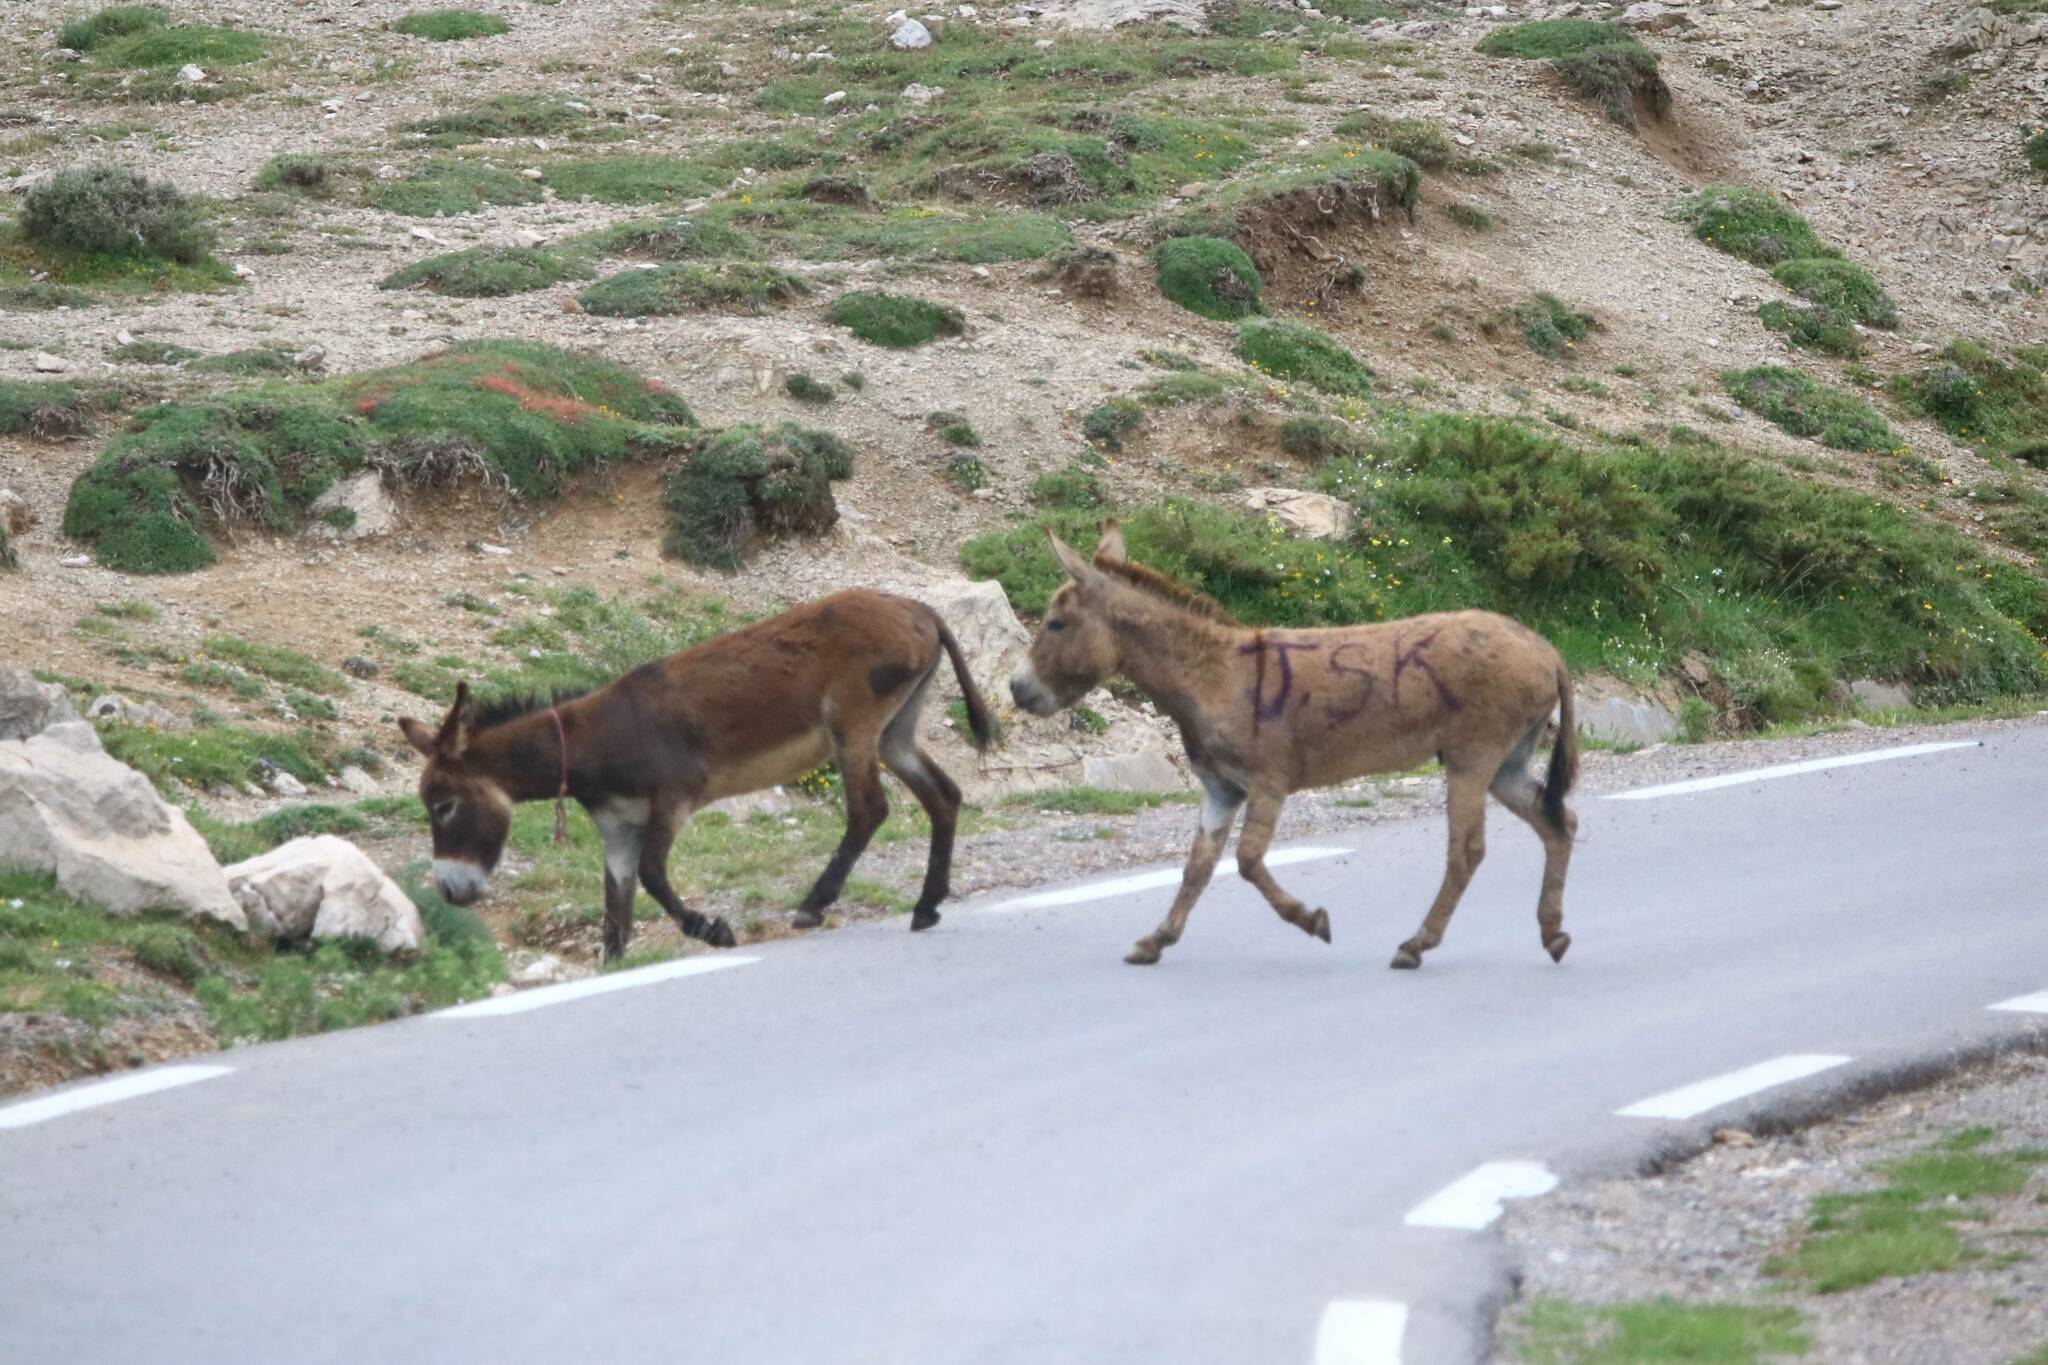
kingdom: Animalia
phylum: Chordata
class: Mammalia
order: Perissodactyla
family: Equidae
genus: Equus
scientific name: Equus asinus
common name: Ass
